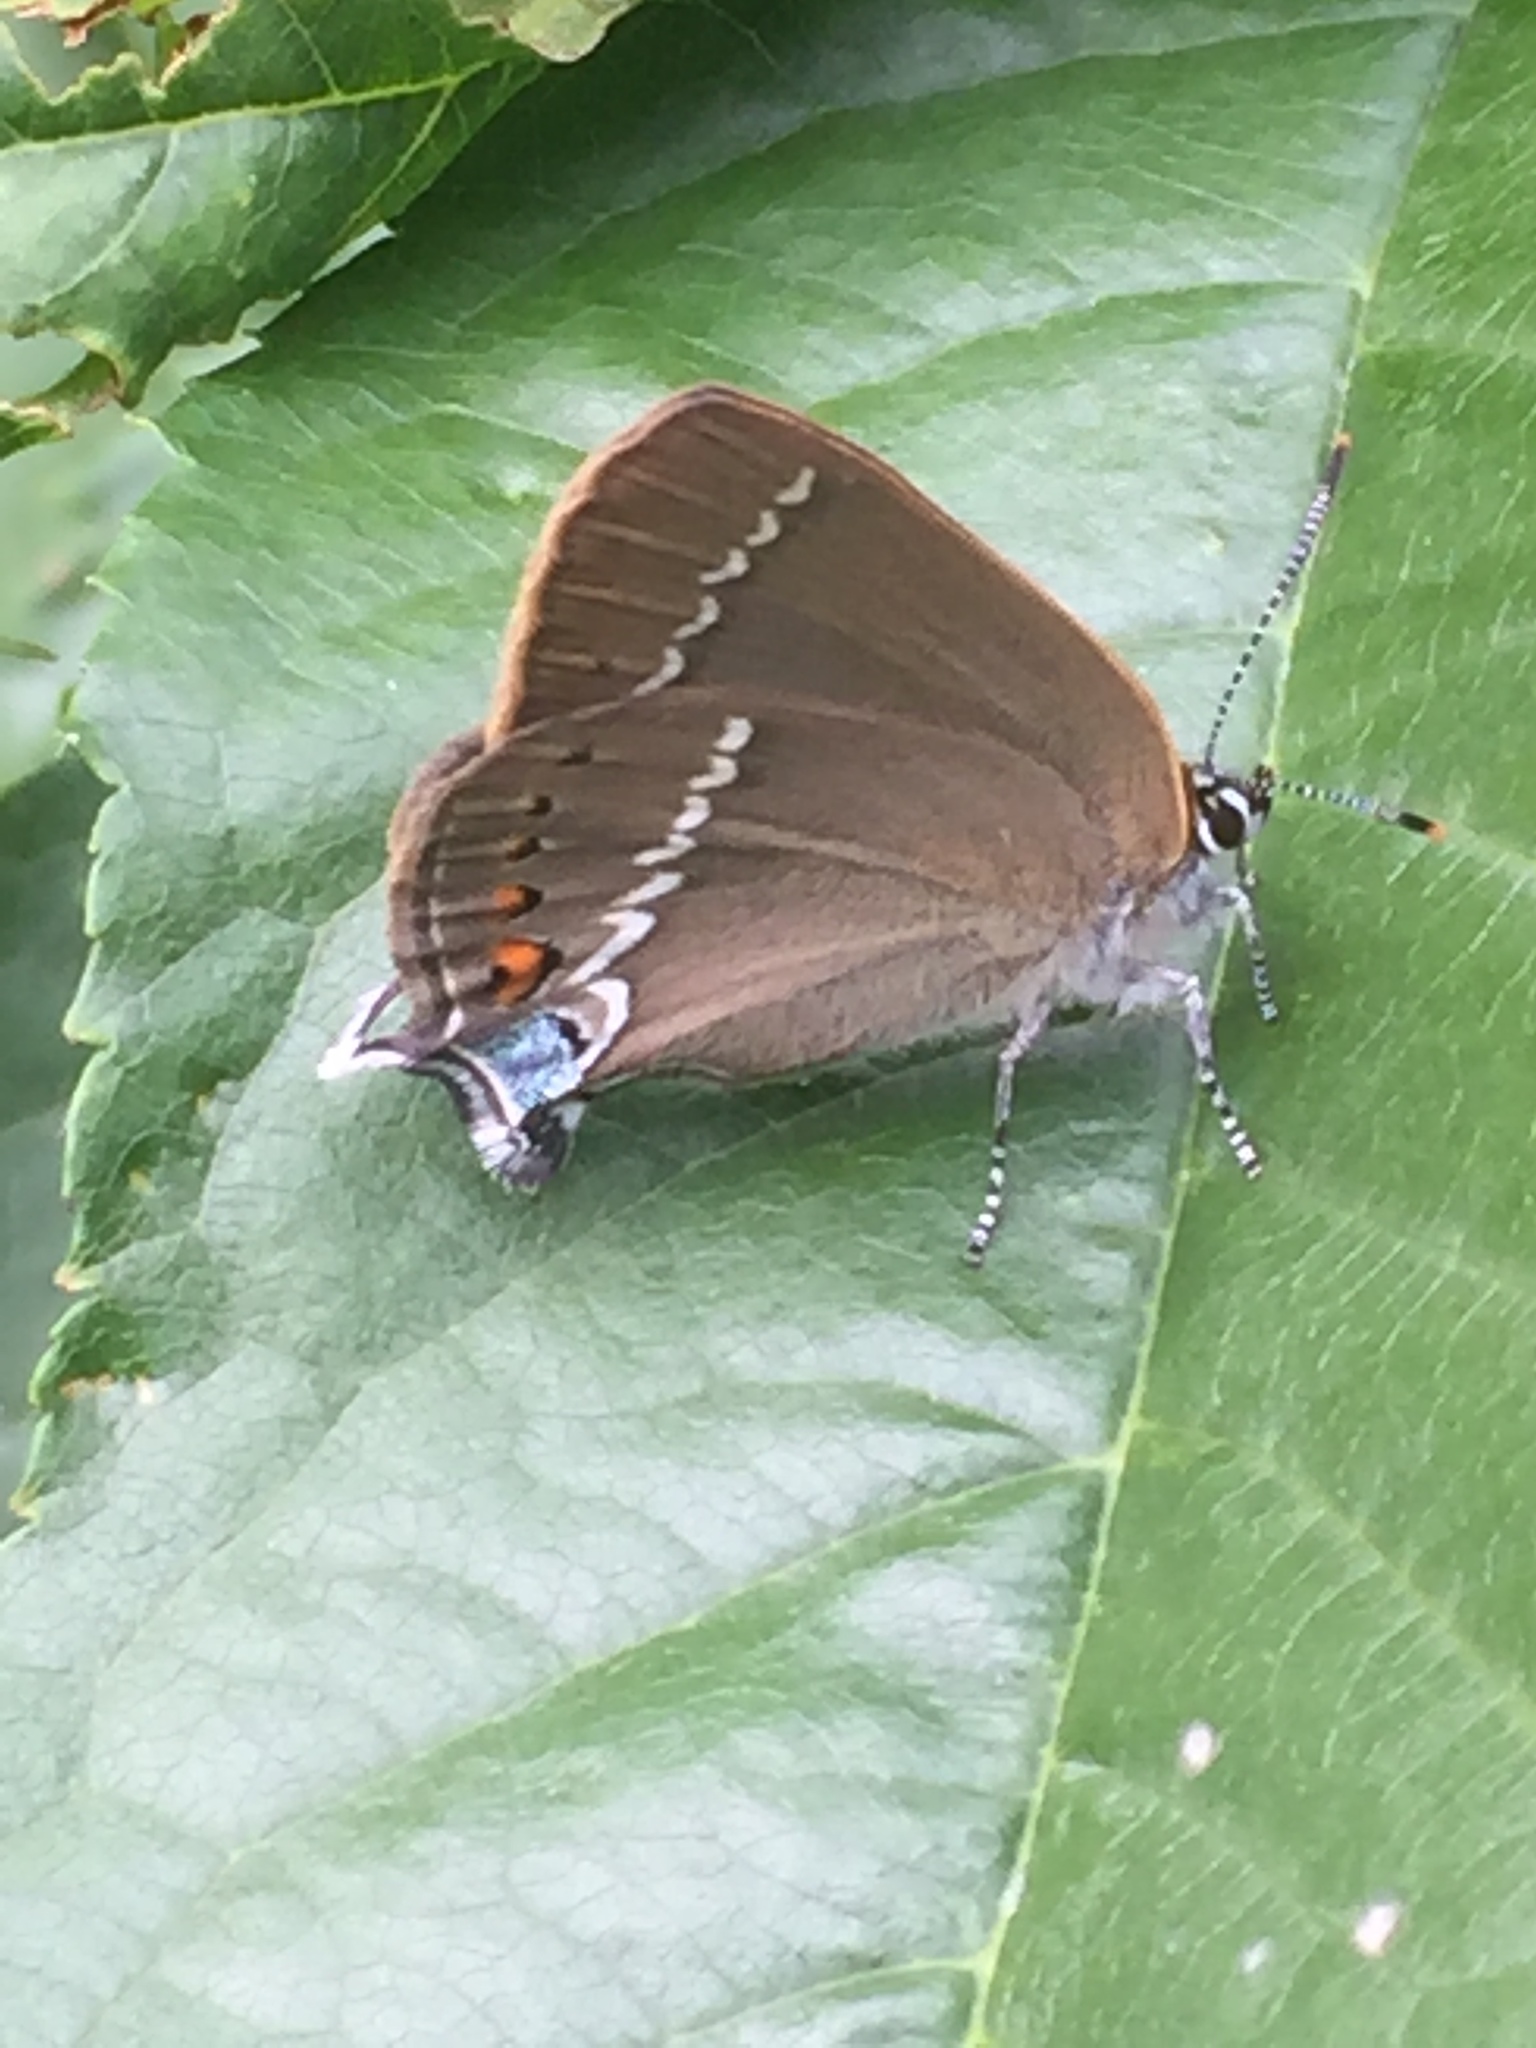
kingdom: Animalia
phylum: Arthropoda
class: Insecta
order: Lepidoptera
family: Lycaenidae
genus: Tuttiola
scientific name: Tuttiola spini
